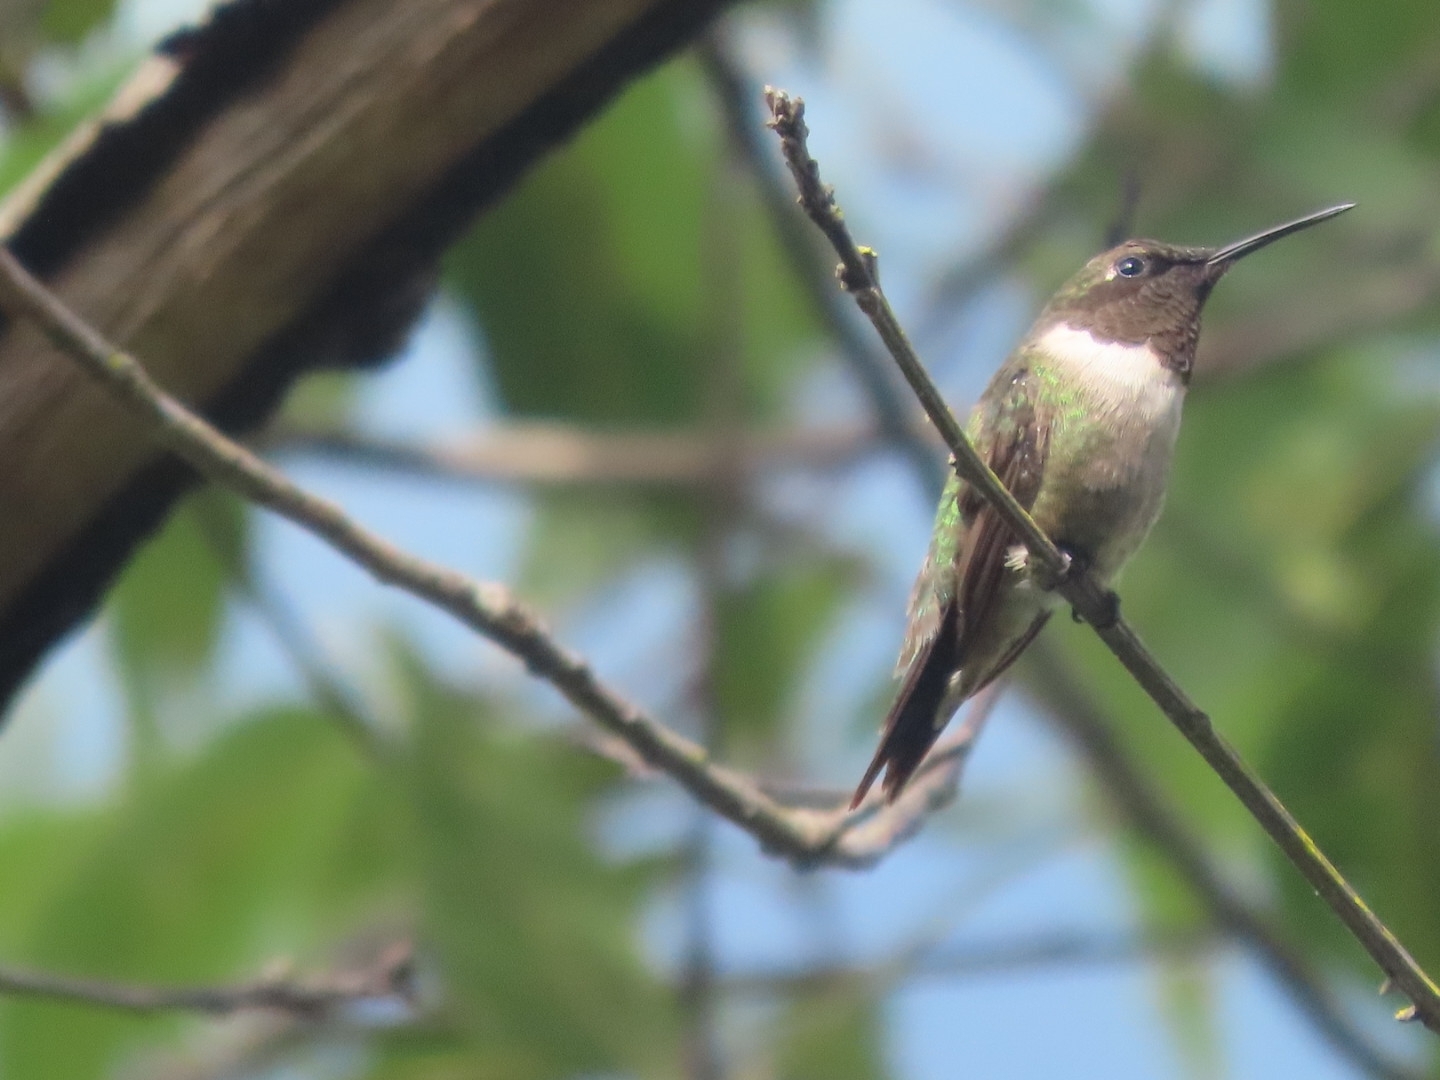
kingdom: Animalia
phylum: Chordata
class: Aves
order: Apodiformes
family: Trochilidae
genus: Archilochus
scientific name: Archilochus colubris
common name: Ruby-throated hummingbird
